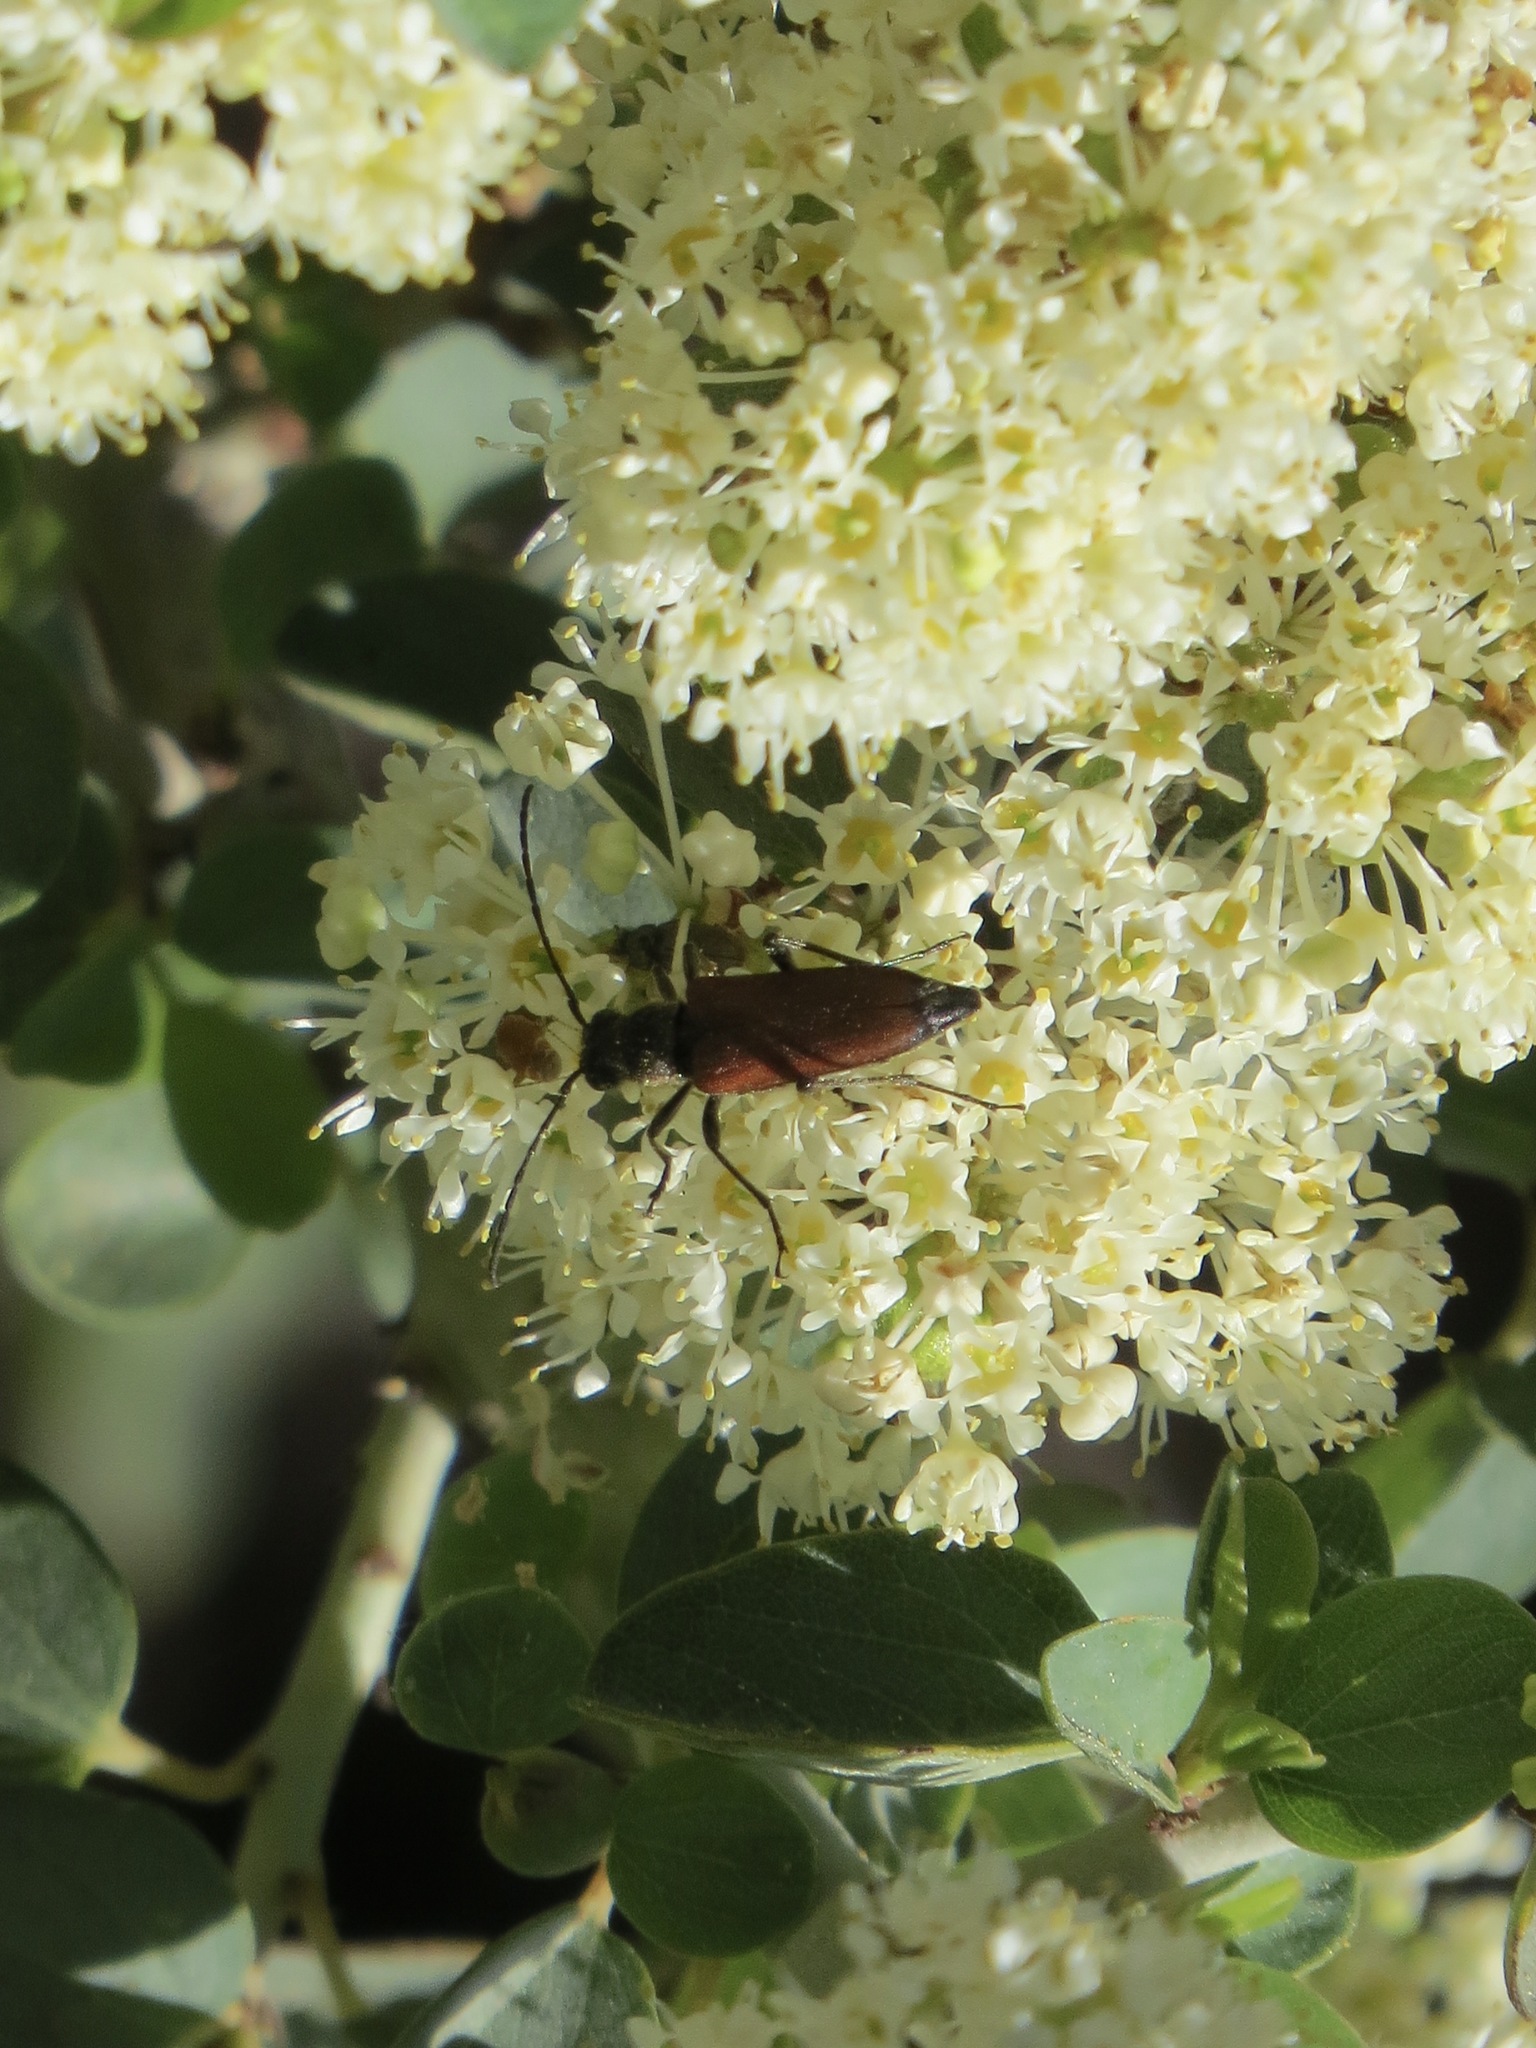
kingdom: Animalia
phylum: Arthropoda
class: Insecta
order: Coleoptera
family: Cerambycidae
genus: Anastrangalia
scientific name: Anastrangalia sanguinea
